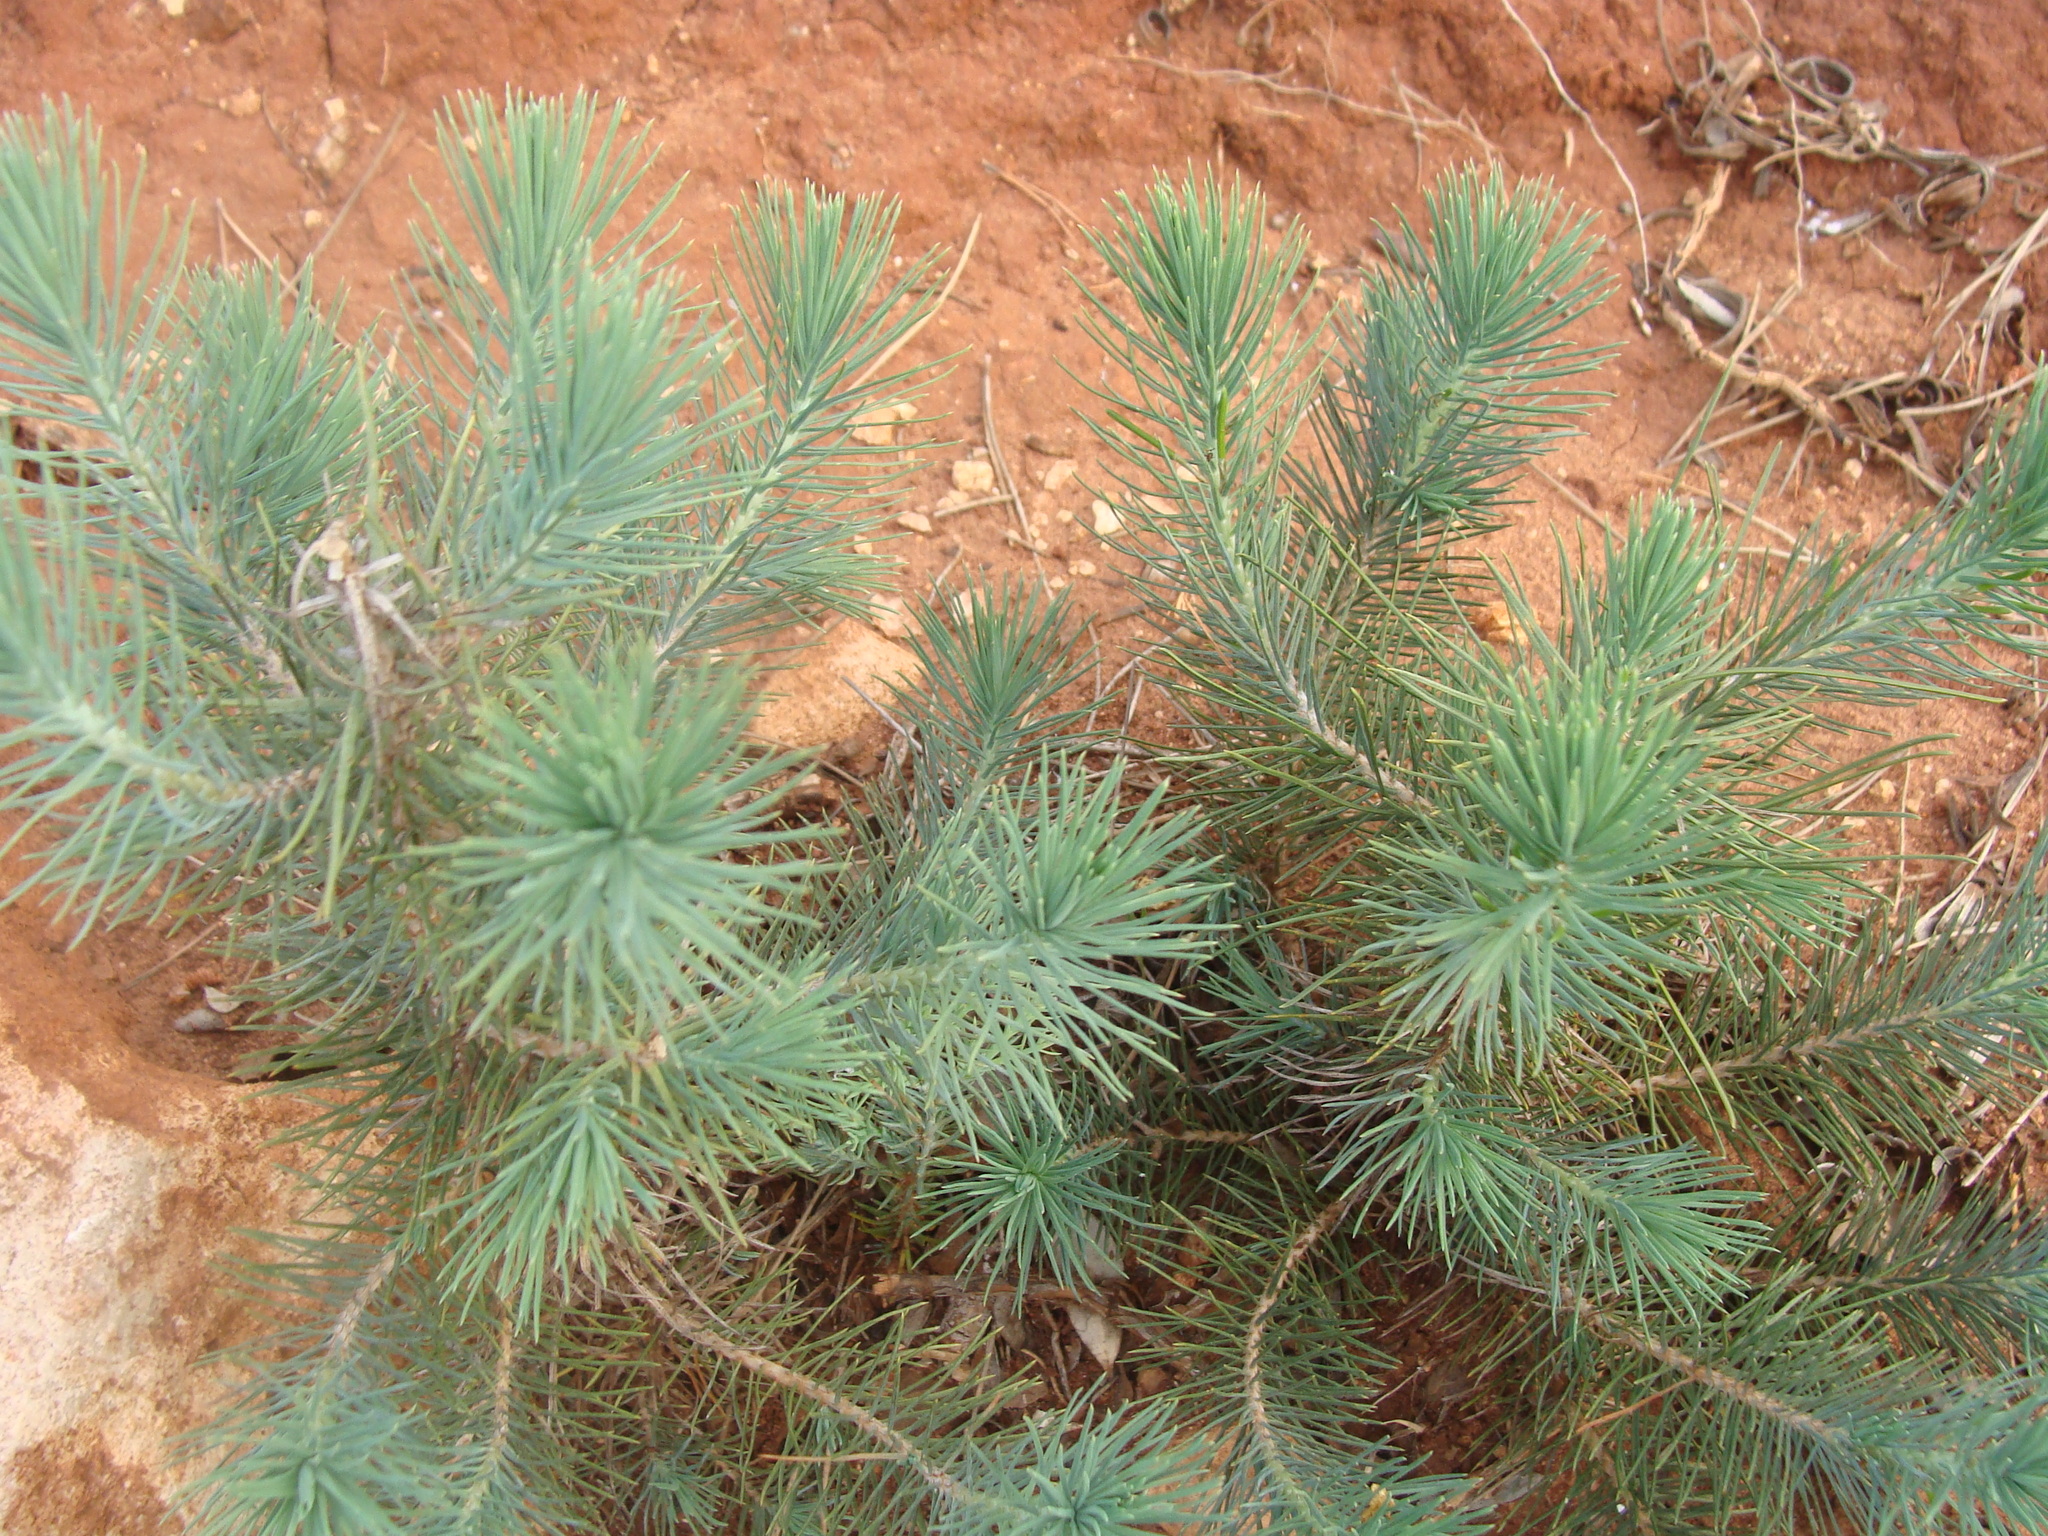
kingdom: Plantae
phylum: Tracheophyta
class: Pinopsida
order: Pinales
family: Pinaceae
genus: Pinus
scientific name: Pinus halepensis
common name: Aleppo pine
